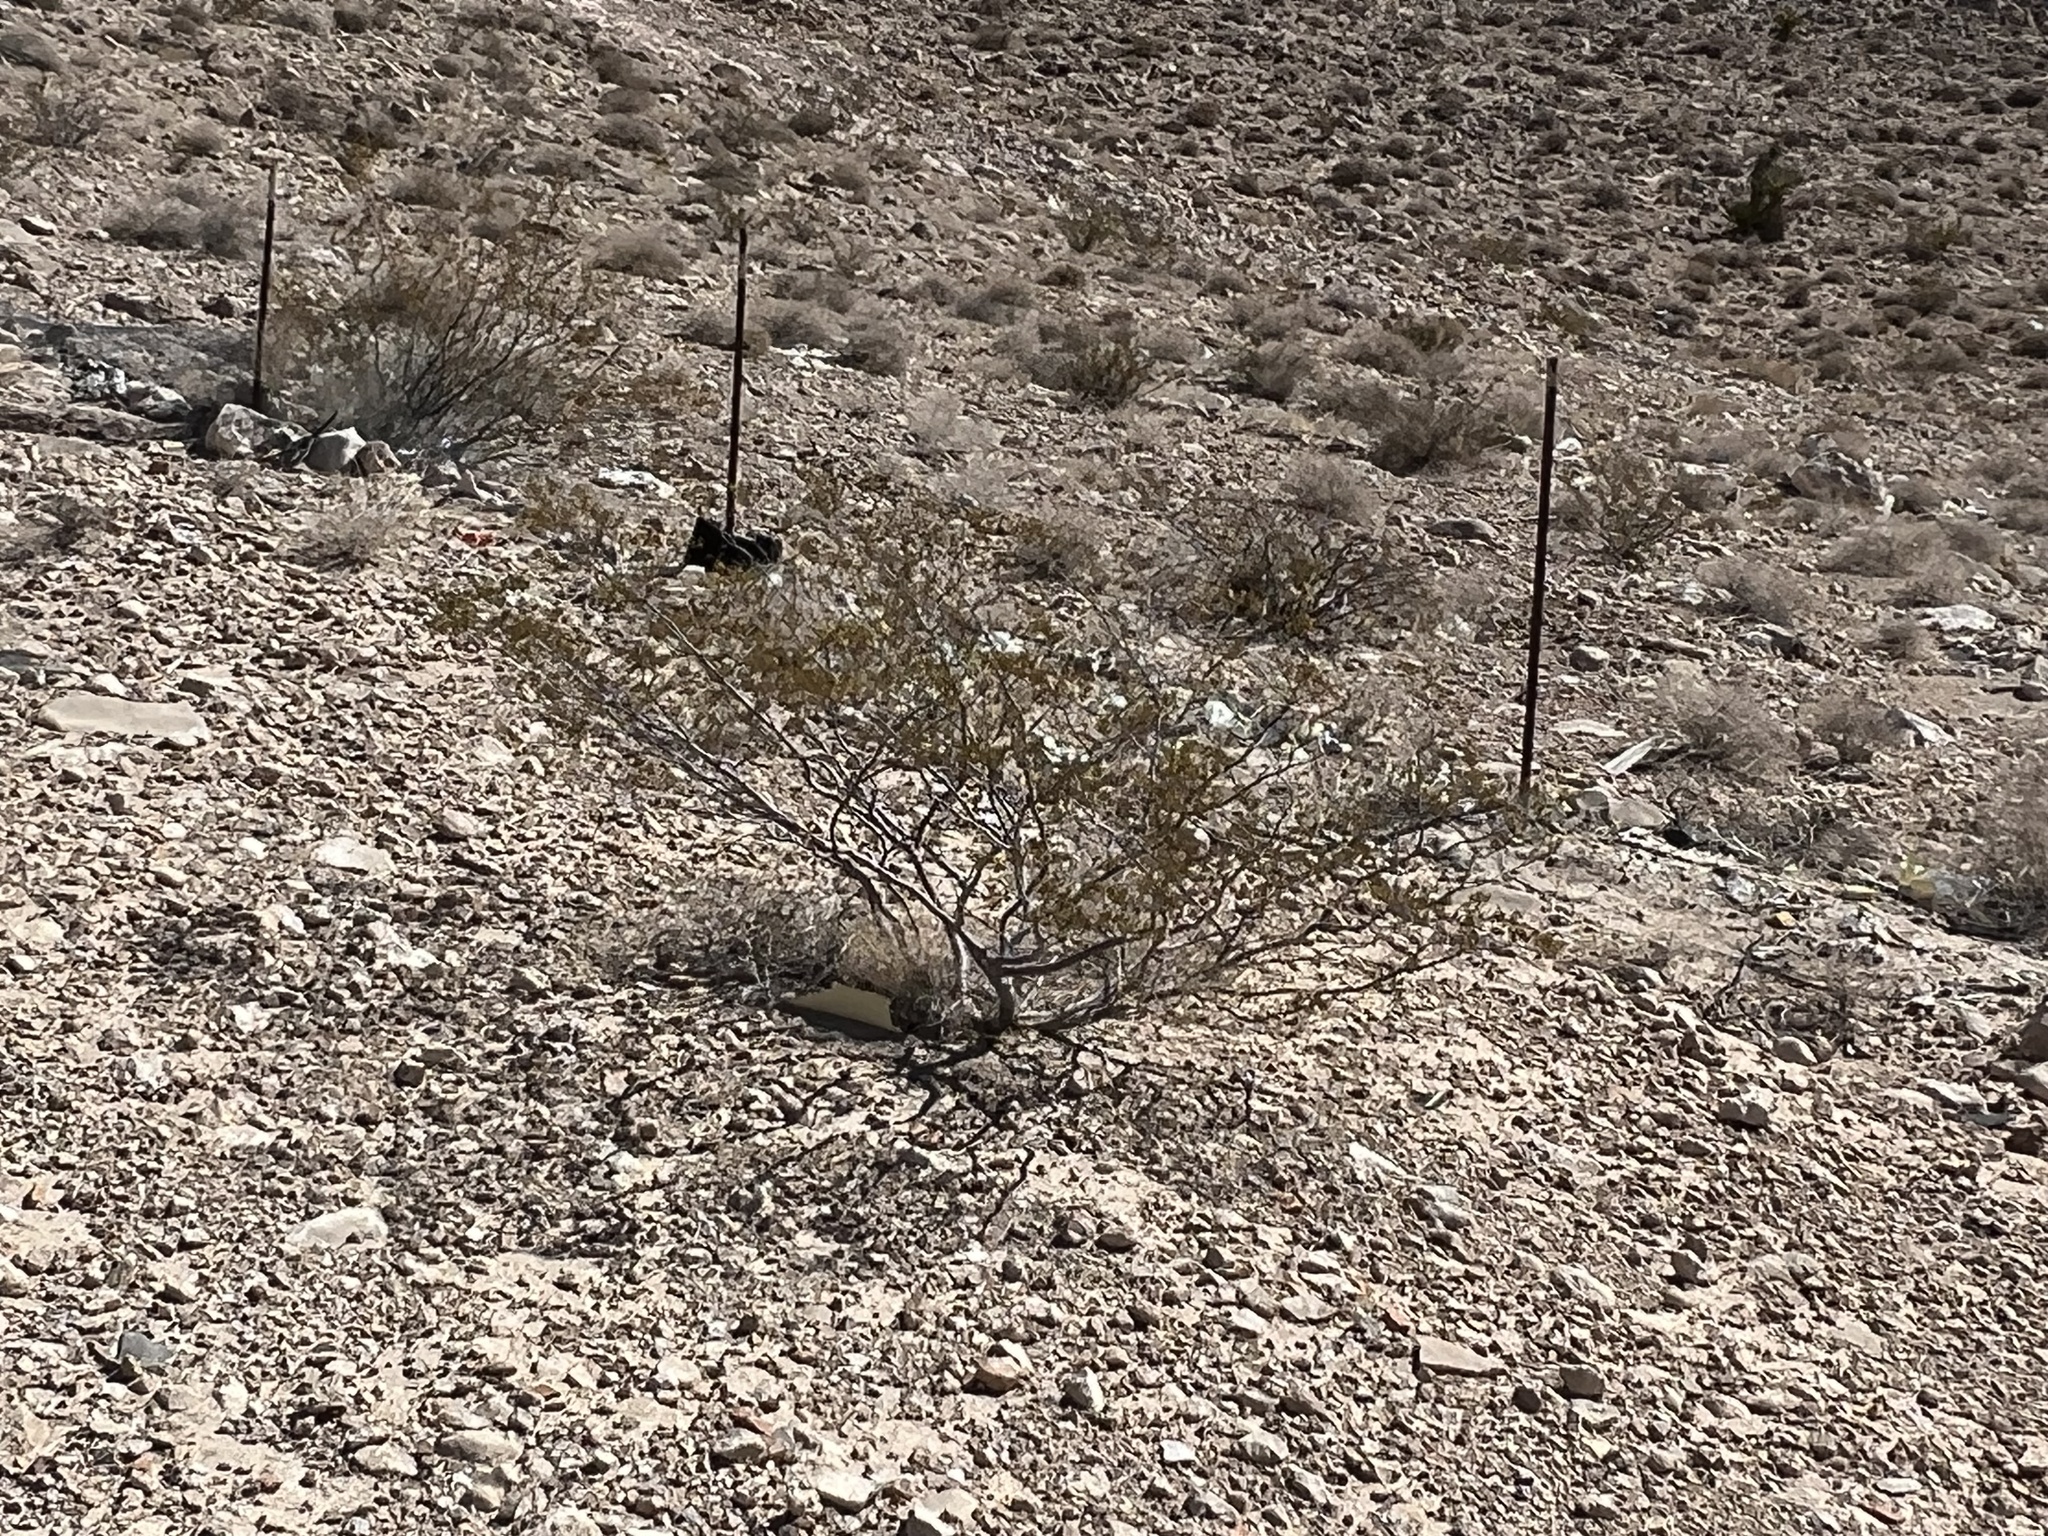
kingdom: Plantae
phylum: Tracheophyta
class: Magnoliopsida
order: Zygophyllales
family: Zygophyllaceae
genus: Larrea
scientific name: Larrea tridentata
